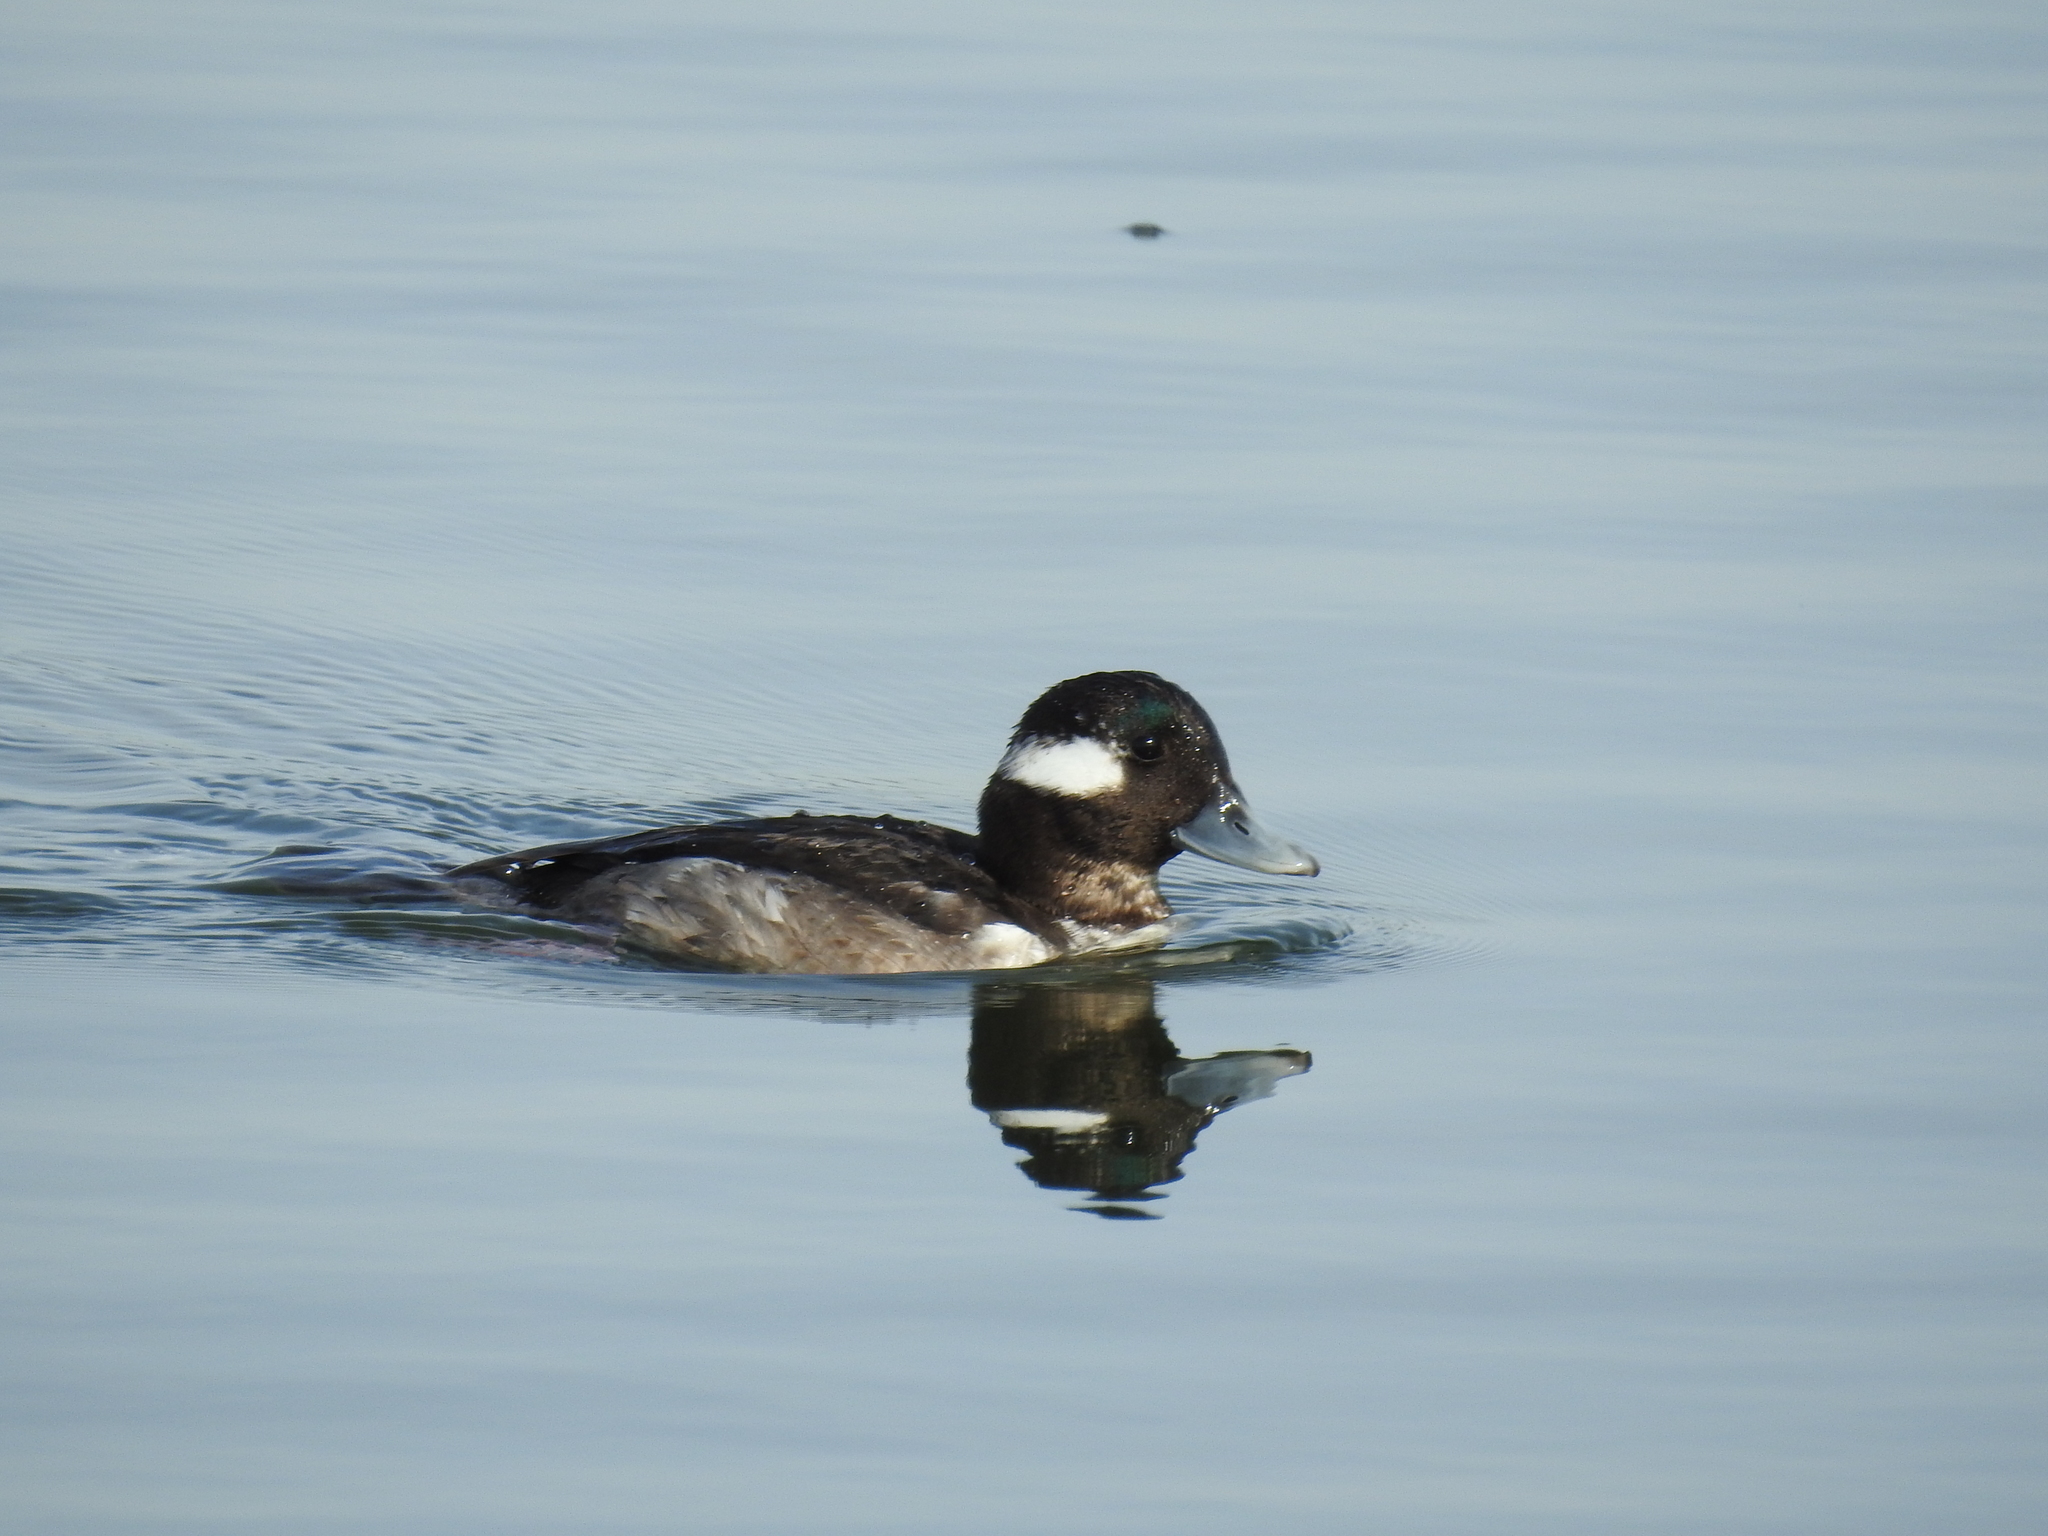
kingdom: Animalia
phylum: Chordata
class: Aves
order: Anseriformes
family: Anatidae
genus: Bucephala
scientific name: Bucephala albeola
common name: Bufflehead
